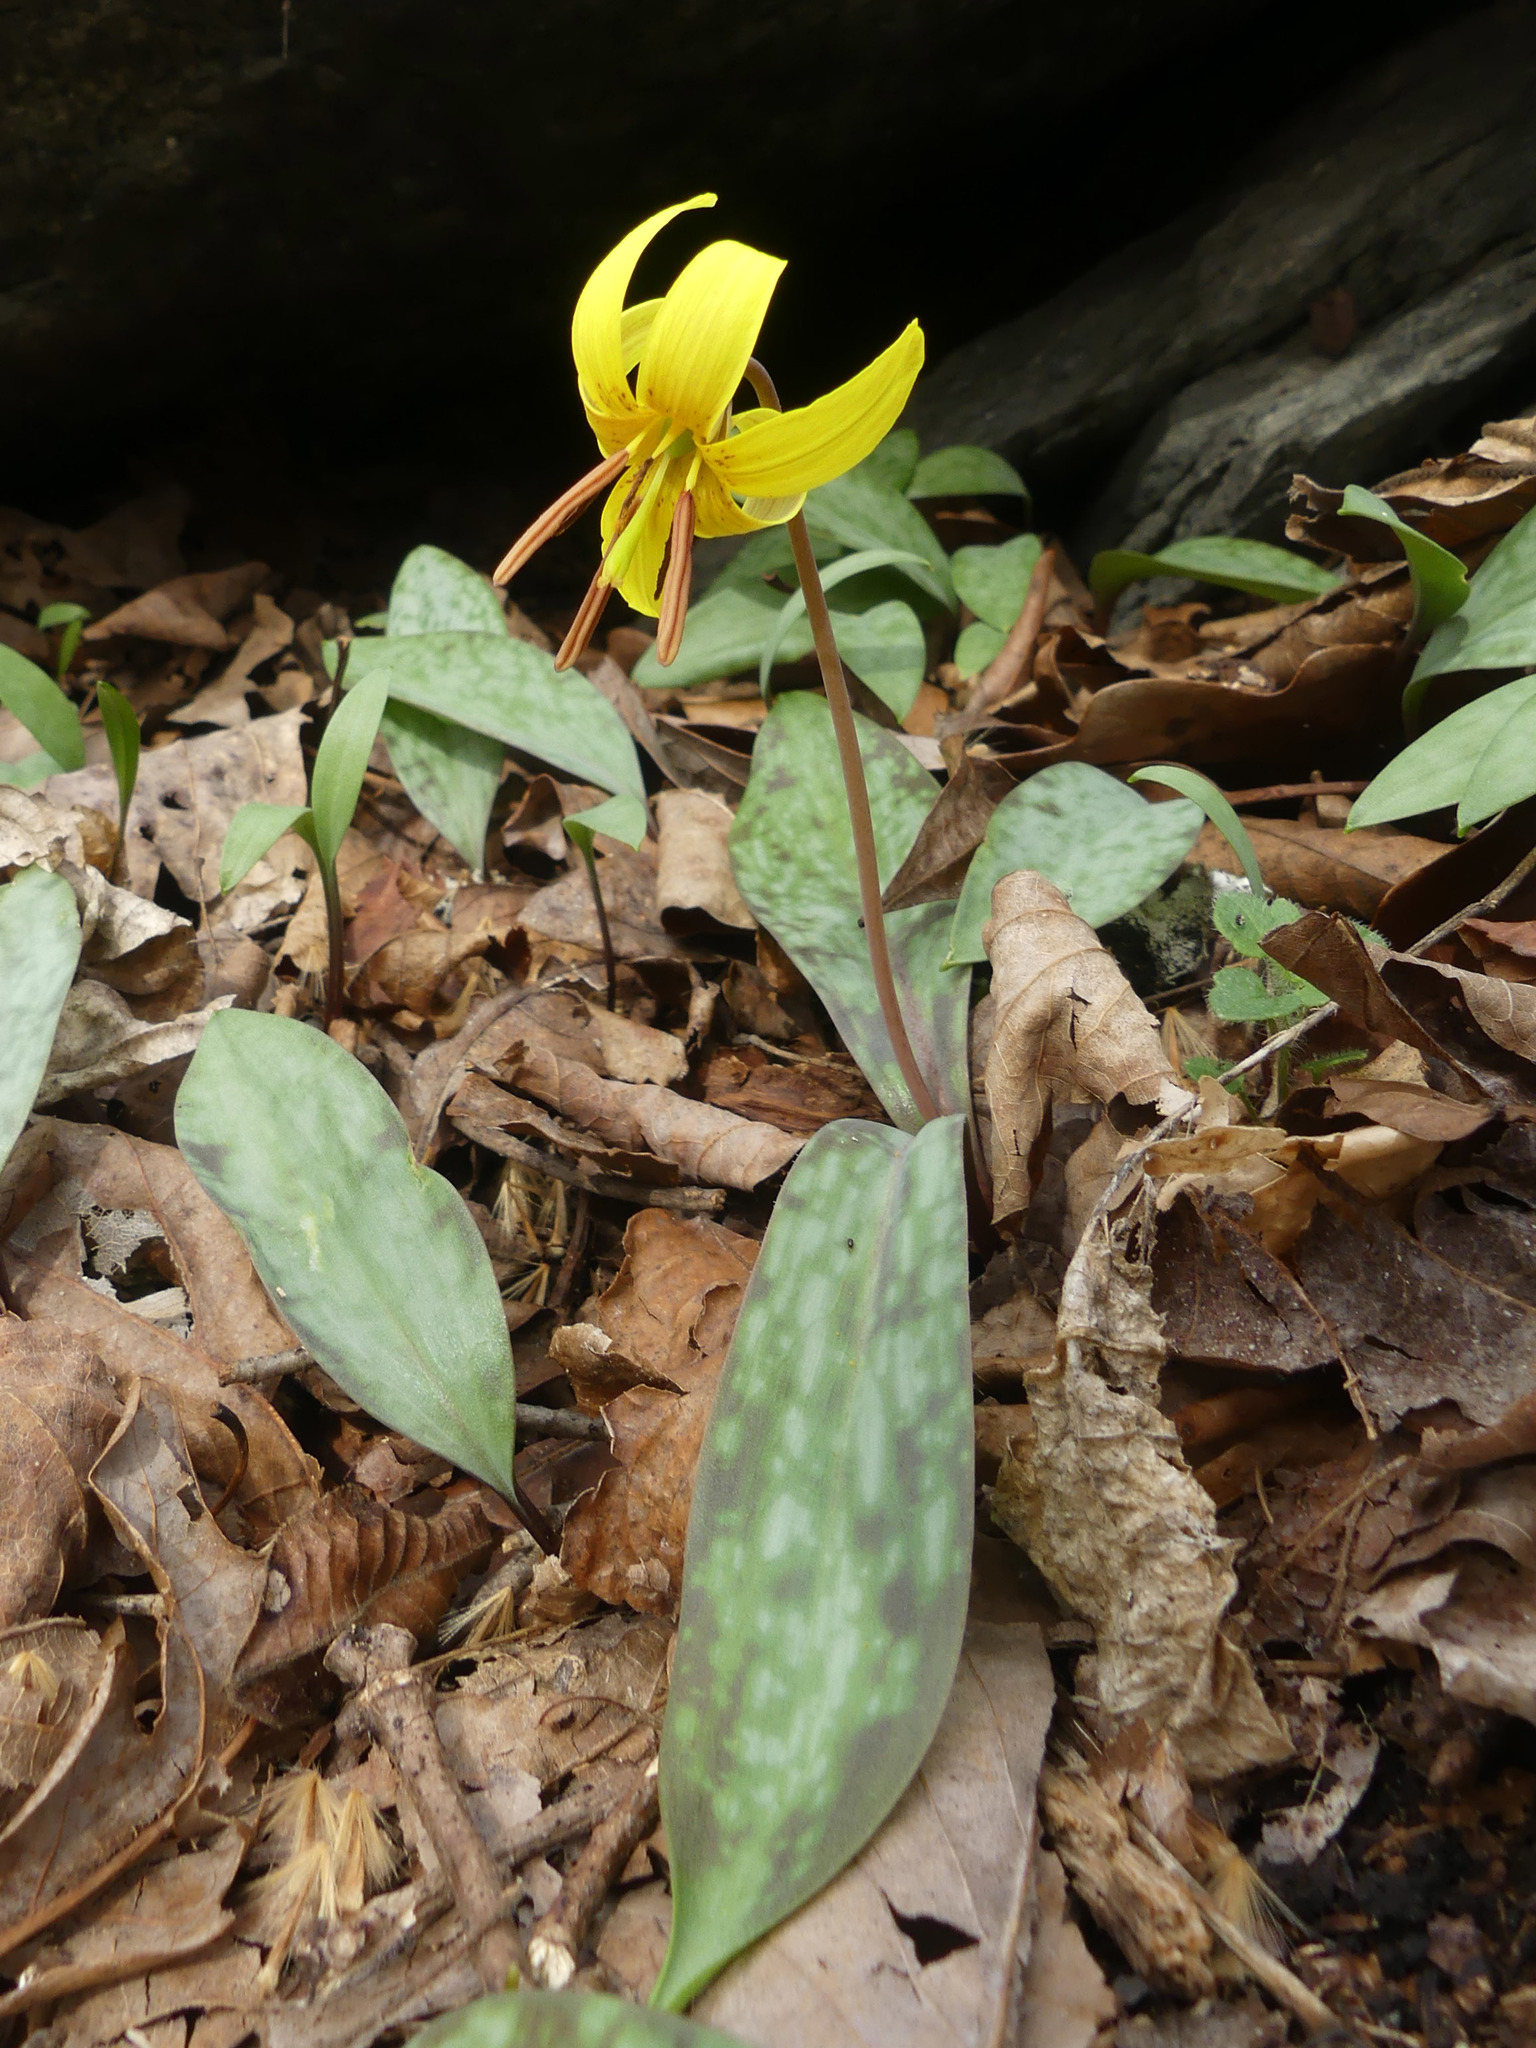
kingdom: Plantae
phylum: Tracheophyta
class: Liliopsida
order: Liliales
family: Liliaceae
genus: Erythronium
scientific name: Erythronium americanum
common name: Yellow adder's-tongue
